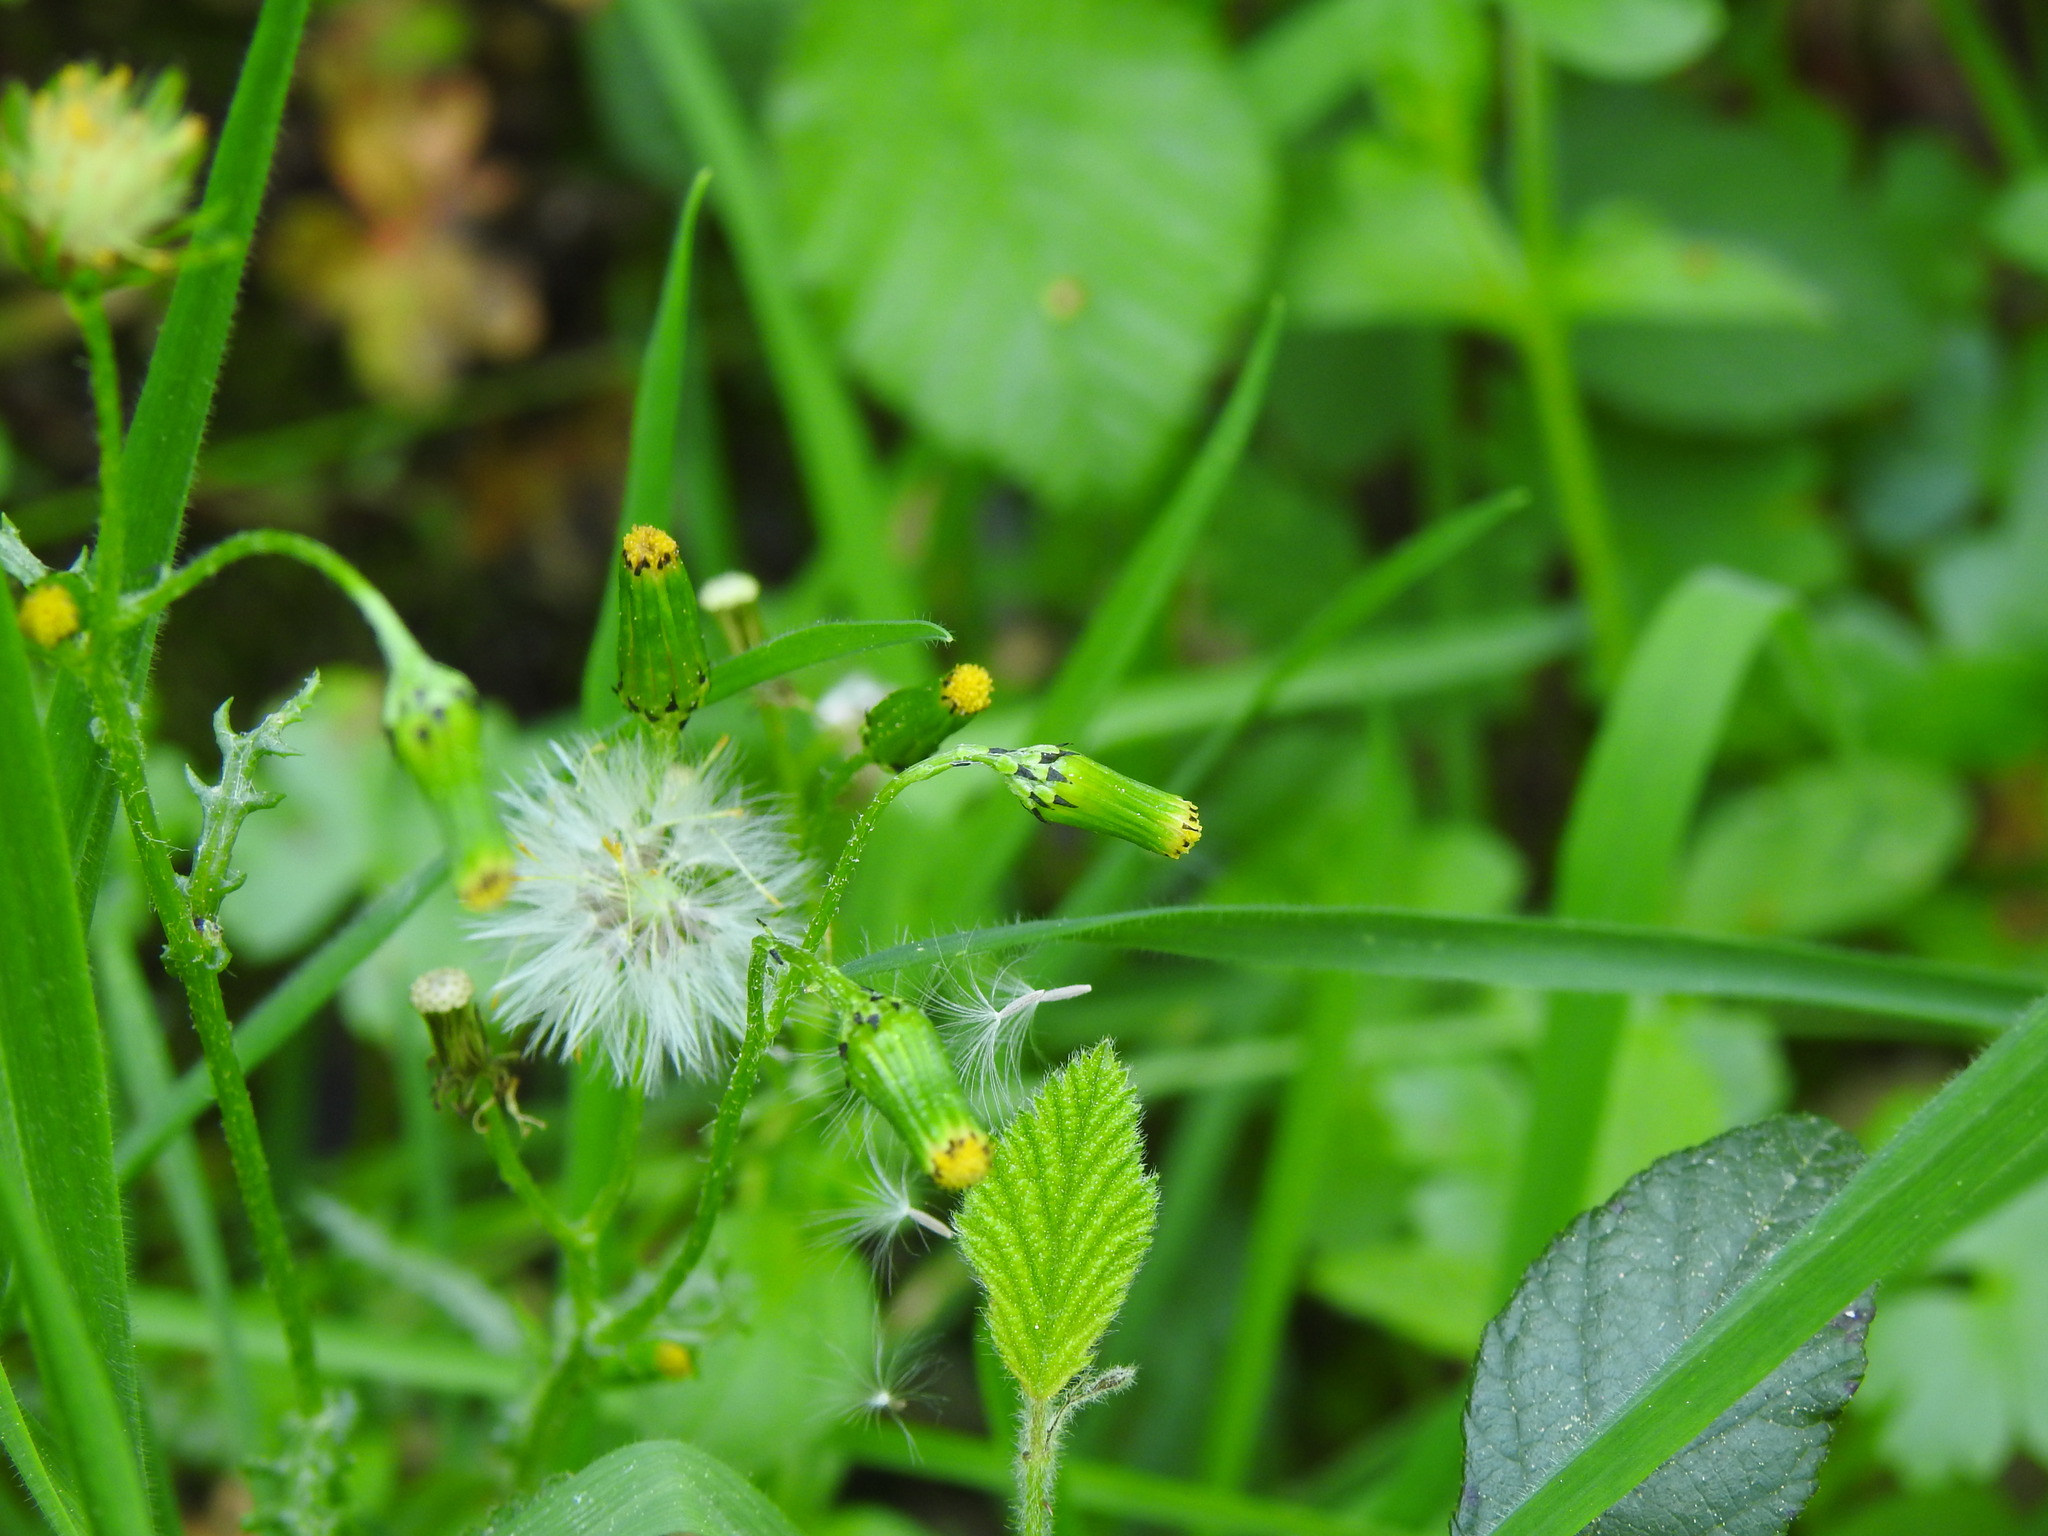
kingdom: Plantae
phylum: Tracheophyta
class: Magnoliopsida
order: Asterales
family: Asteraceae
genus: Senecio
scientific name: Senecio vulgaris
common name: Old-man-in-the-spring
